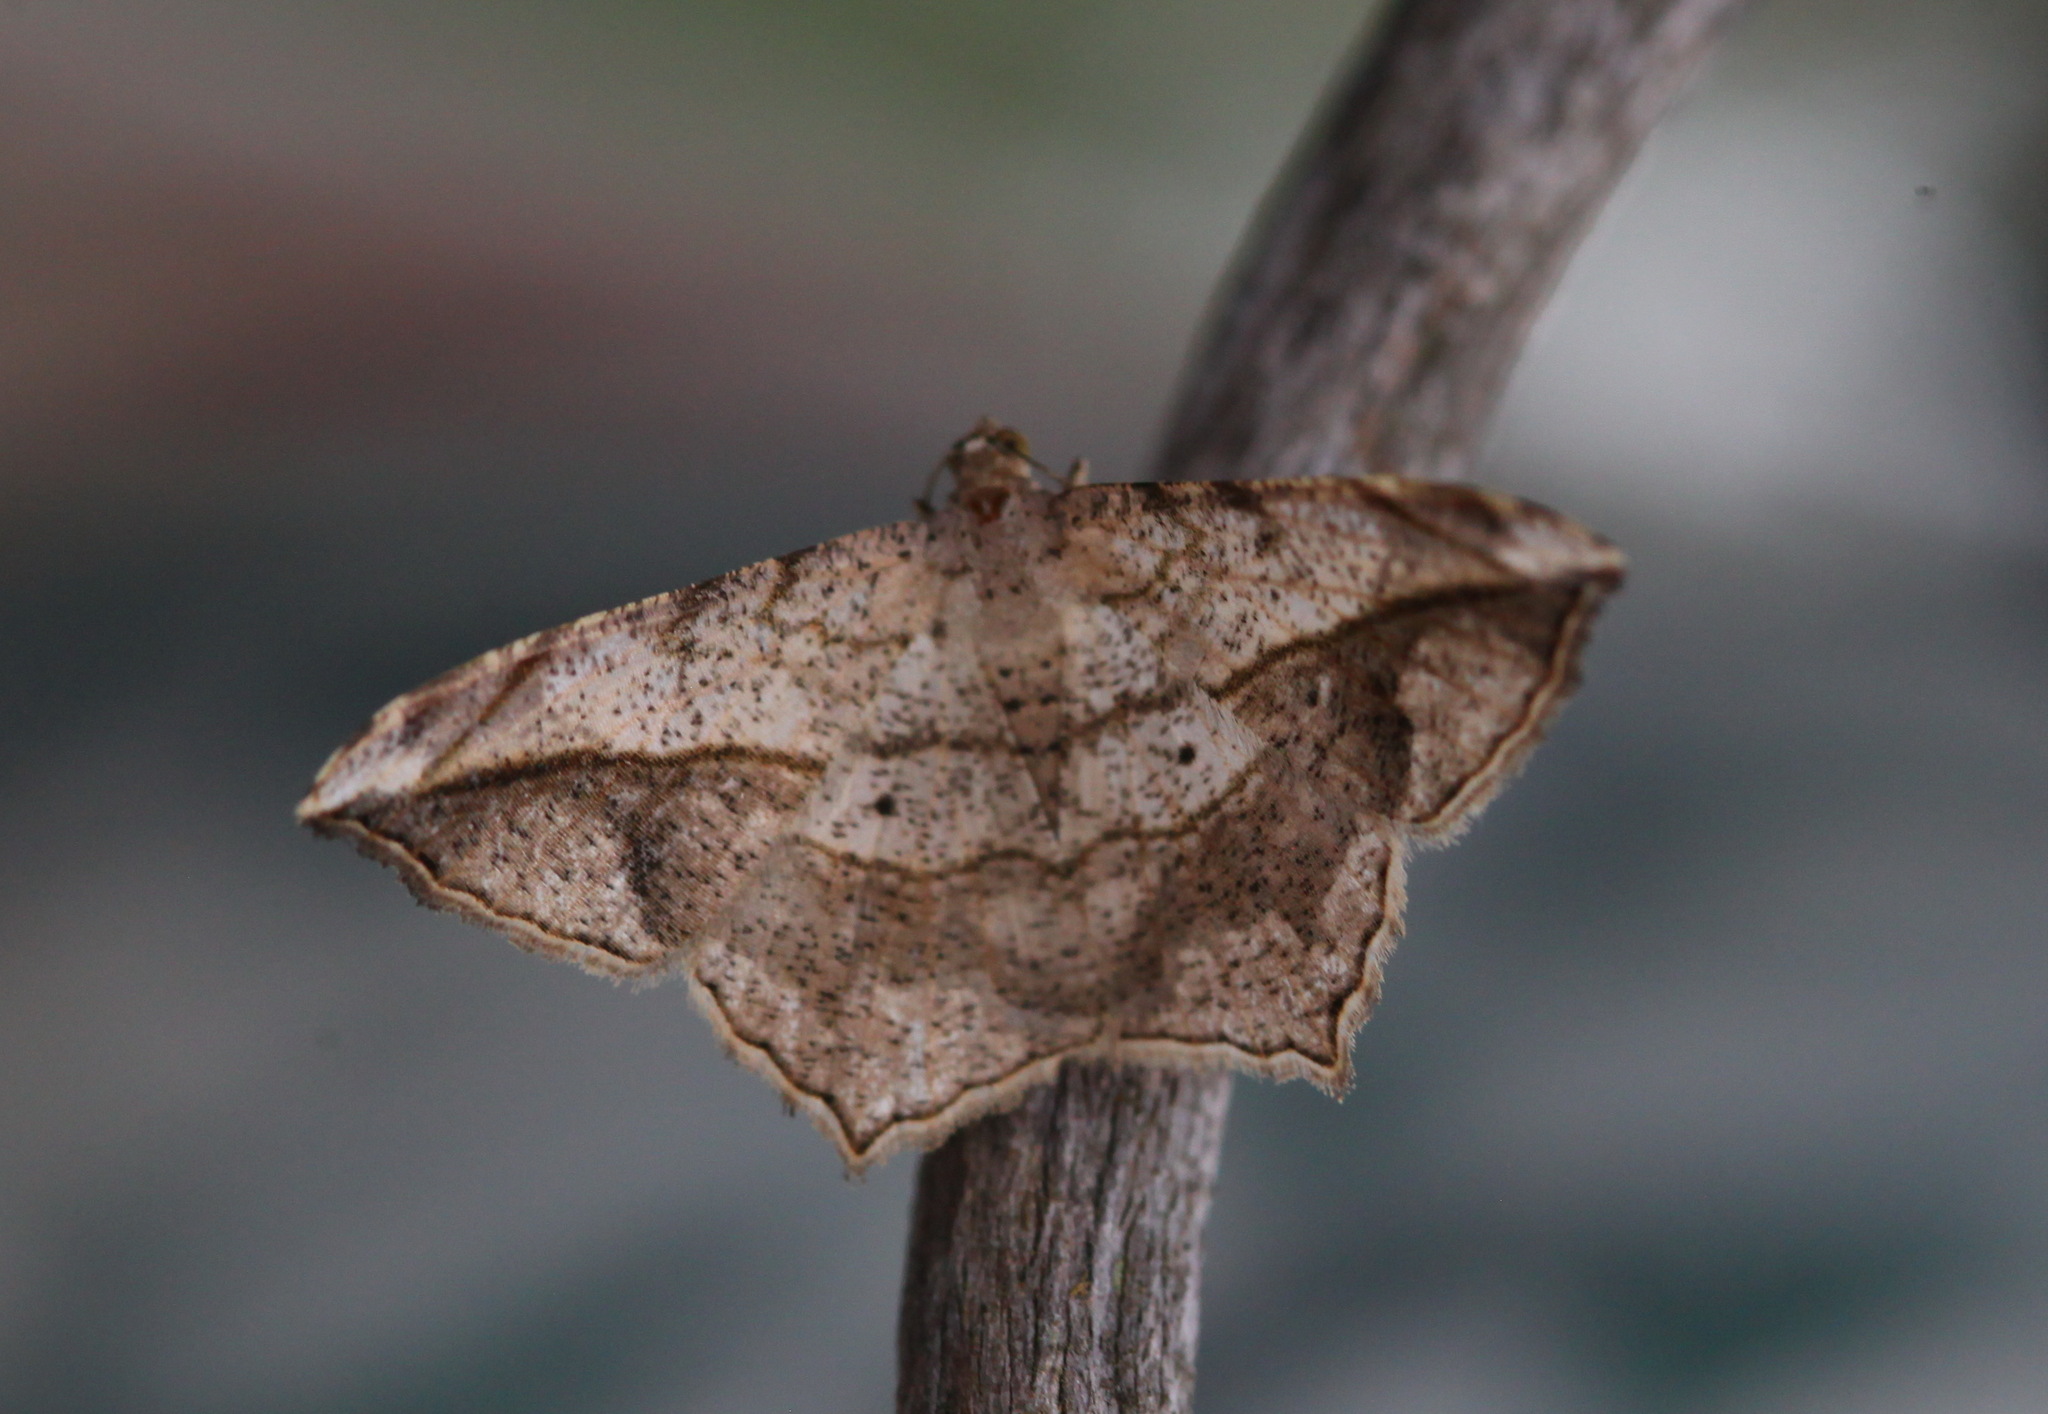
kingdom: Animalia
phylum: Arthropoda
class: Insecta
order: Lepidoptera
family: Geometridae
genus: Chiasmia
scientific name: Chiasmia simplicilinea
